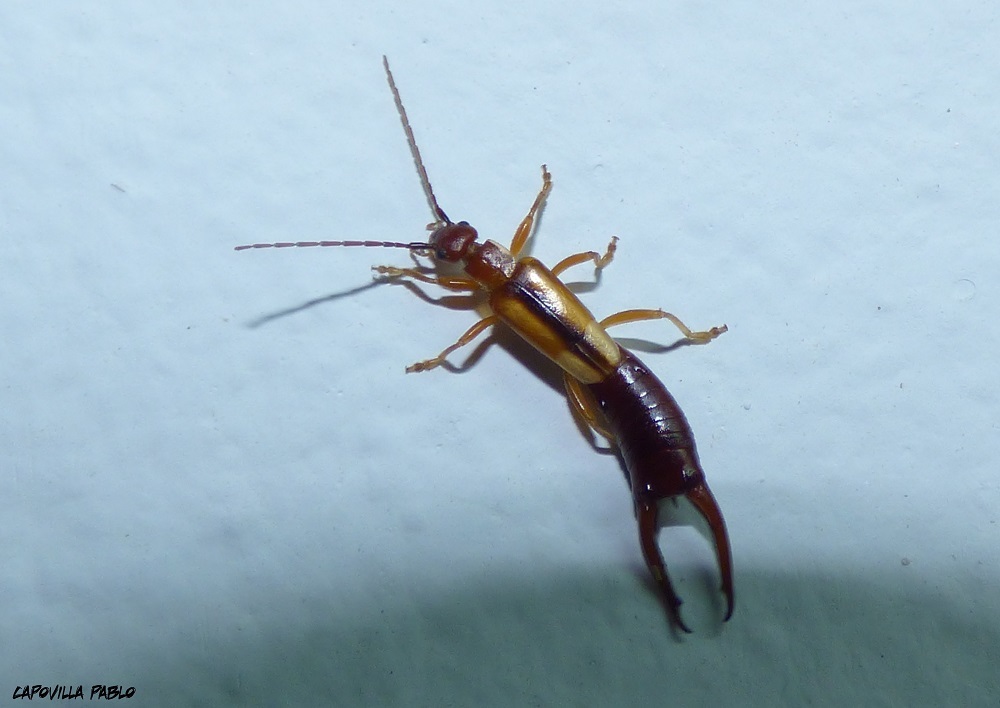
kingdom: Animalia
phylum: Arthropoda
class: Insecta
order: Dermaptera
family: Forficulidae
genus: Doru
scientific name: Doru
